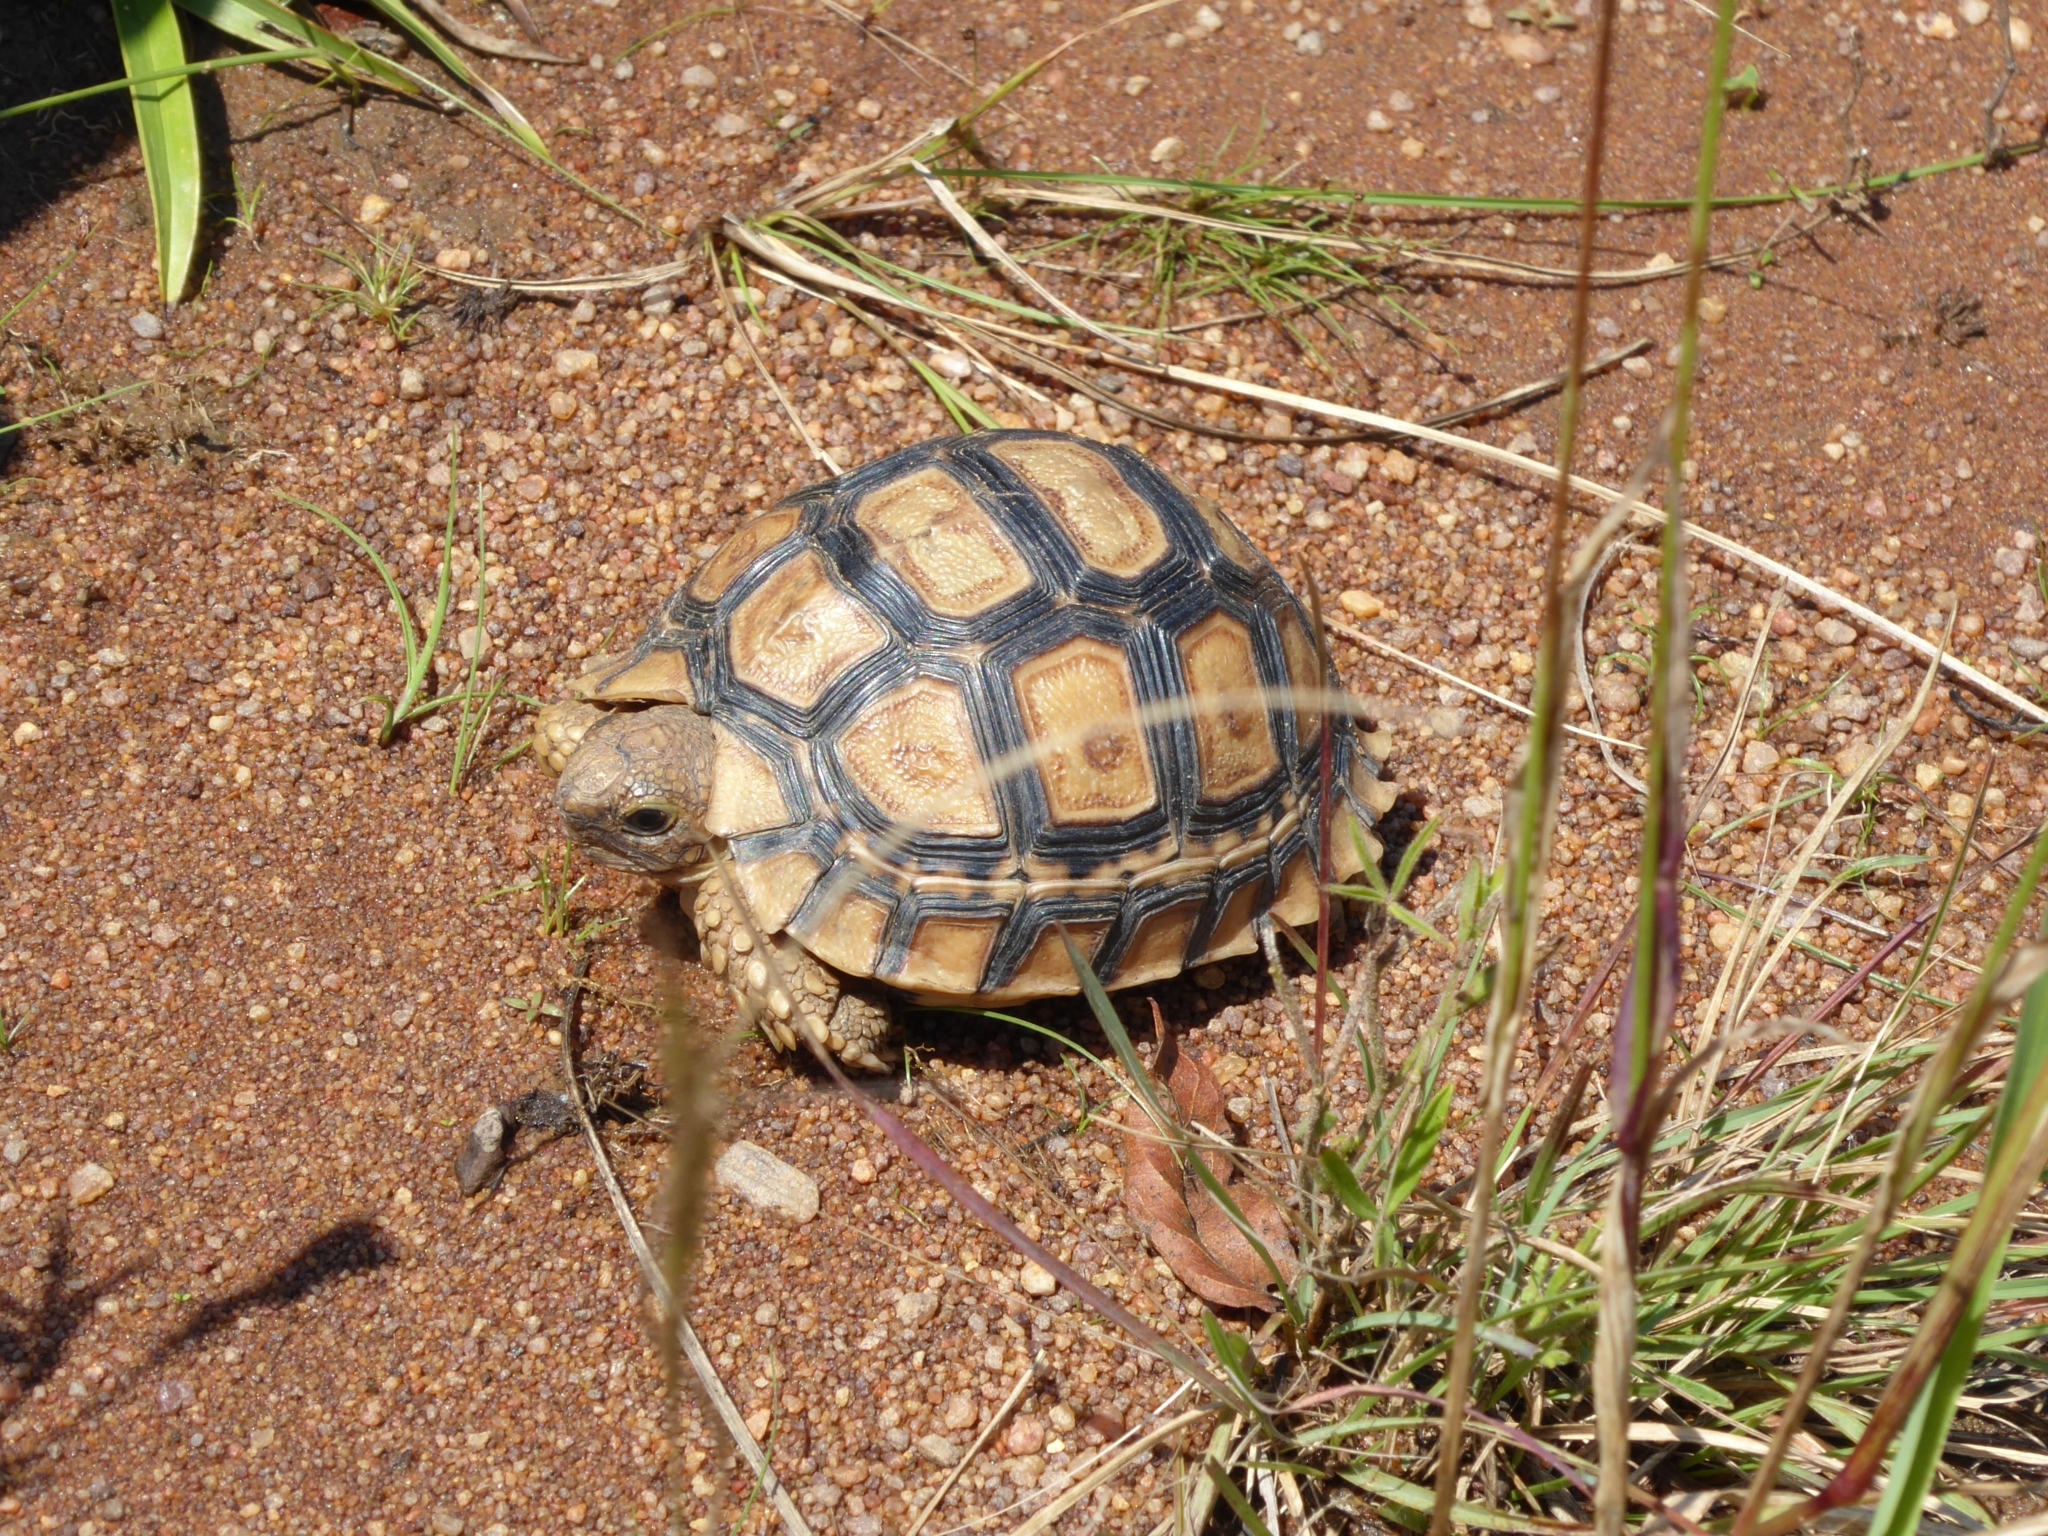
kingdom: Animalia
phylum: Chordata
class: Testudines
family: Testudinidae
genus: Stigmochelys
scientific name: Stigmochelys pardalis
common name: Leopard tortoise
